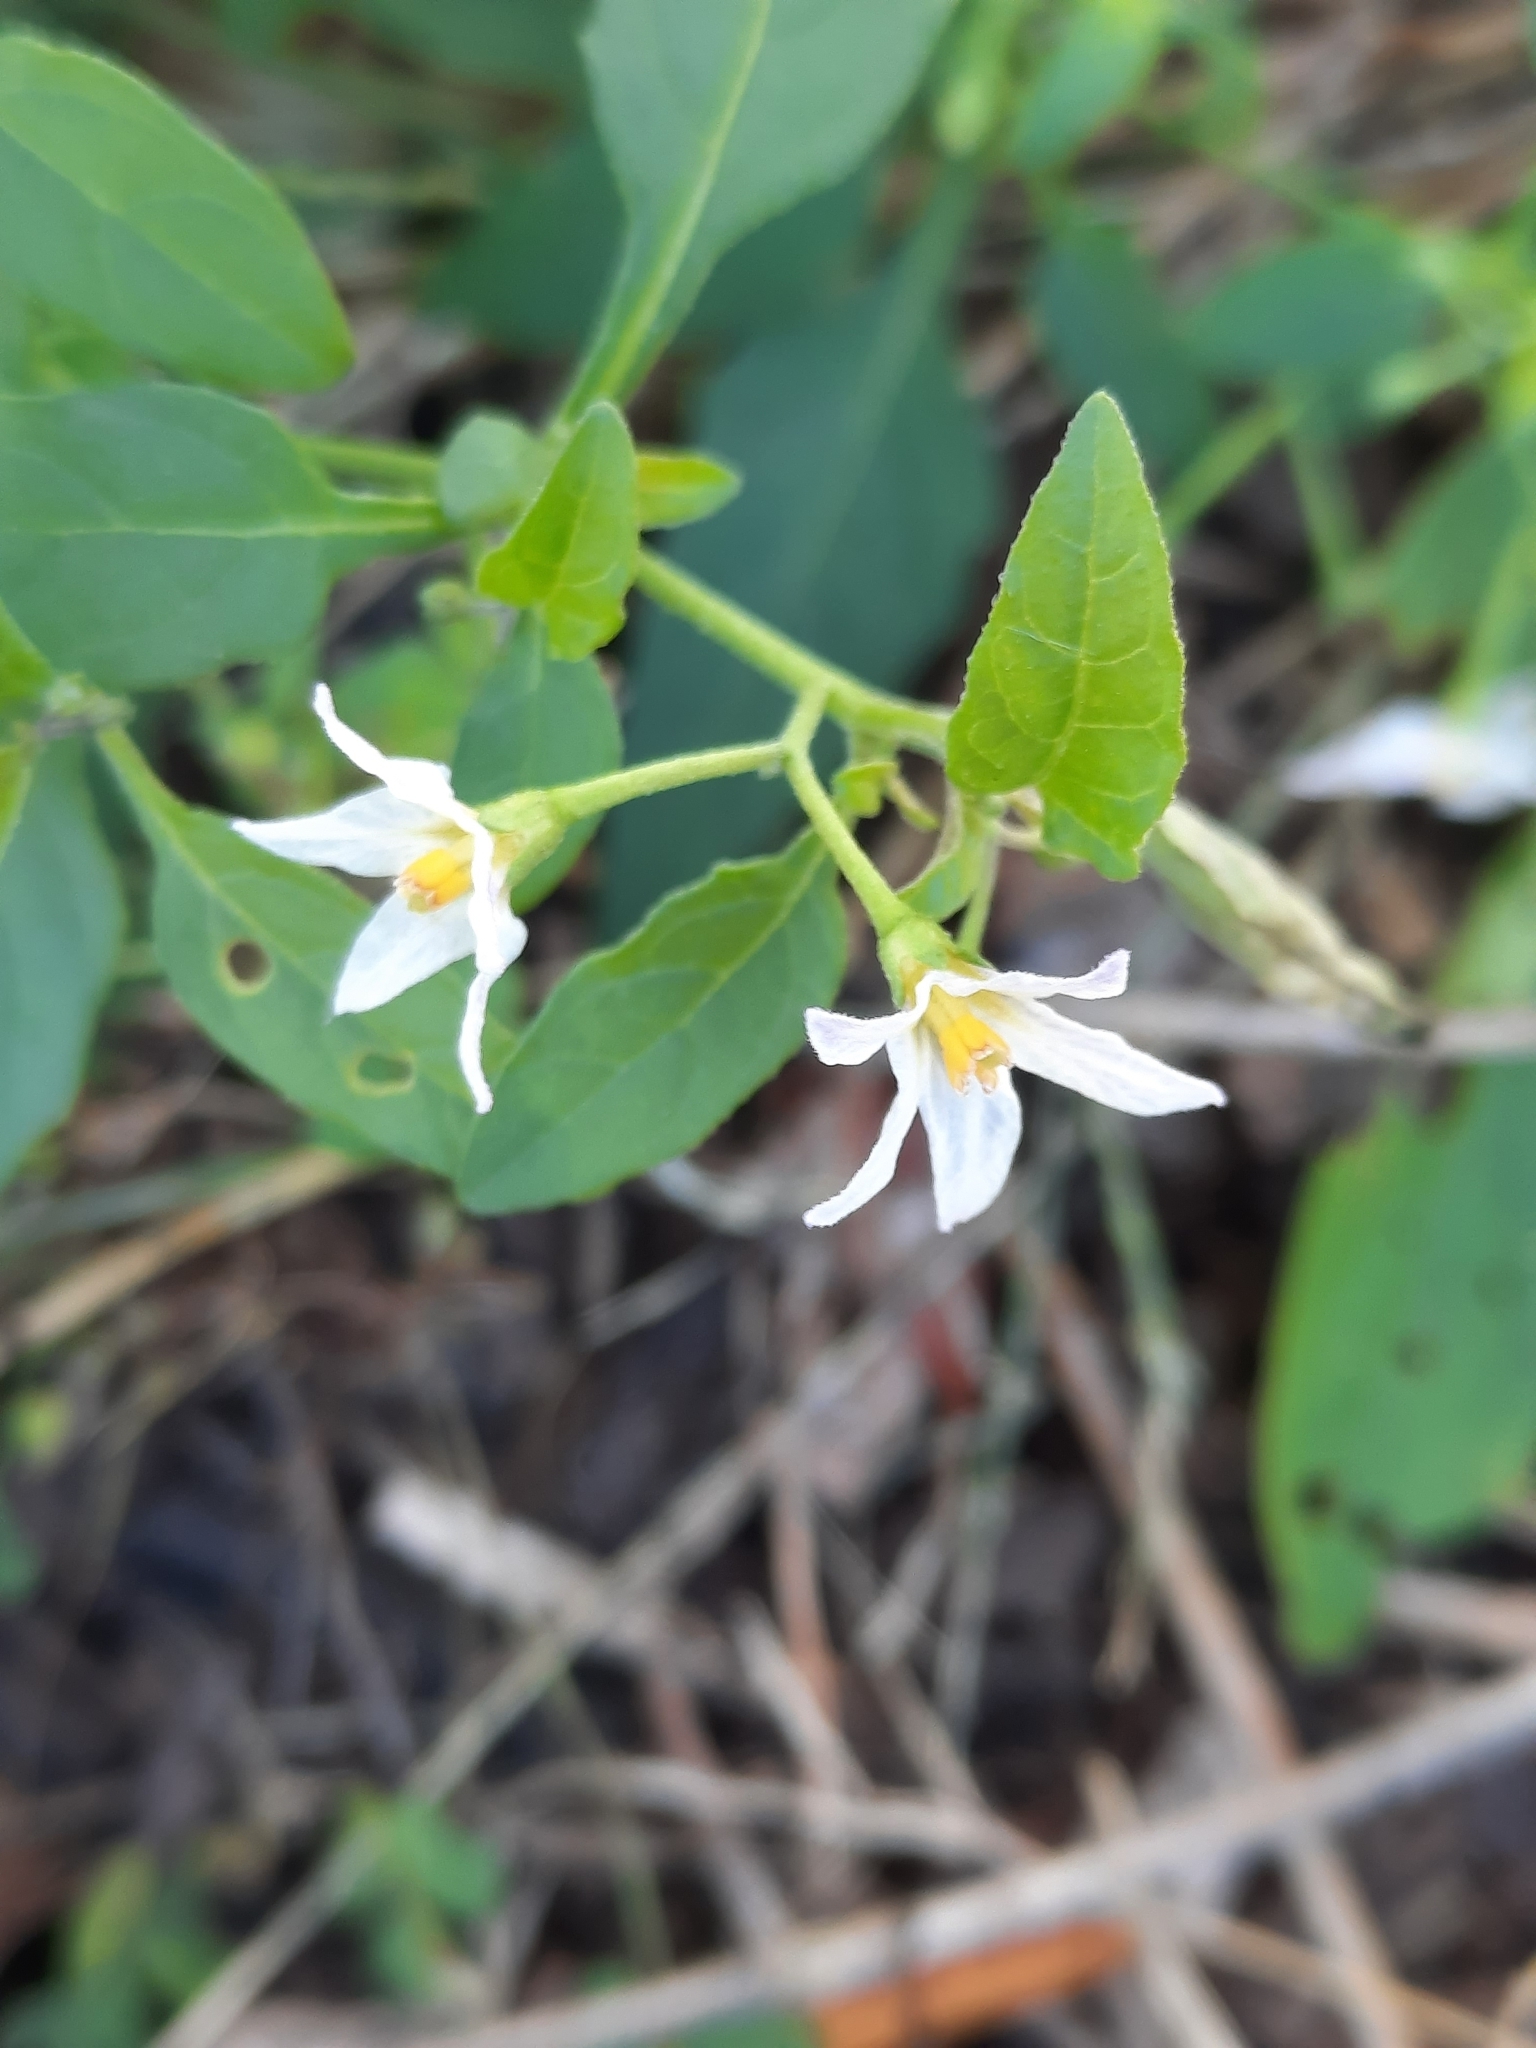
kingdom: Plantae
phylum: Tracheophyta
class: Magnoliopsida
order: Solanales
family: Solanaceae
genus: Solanum
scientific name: Solanum emulans
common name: Eastern black nightshade
